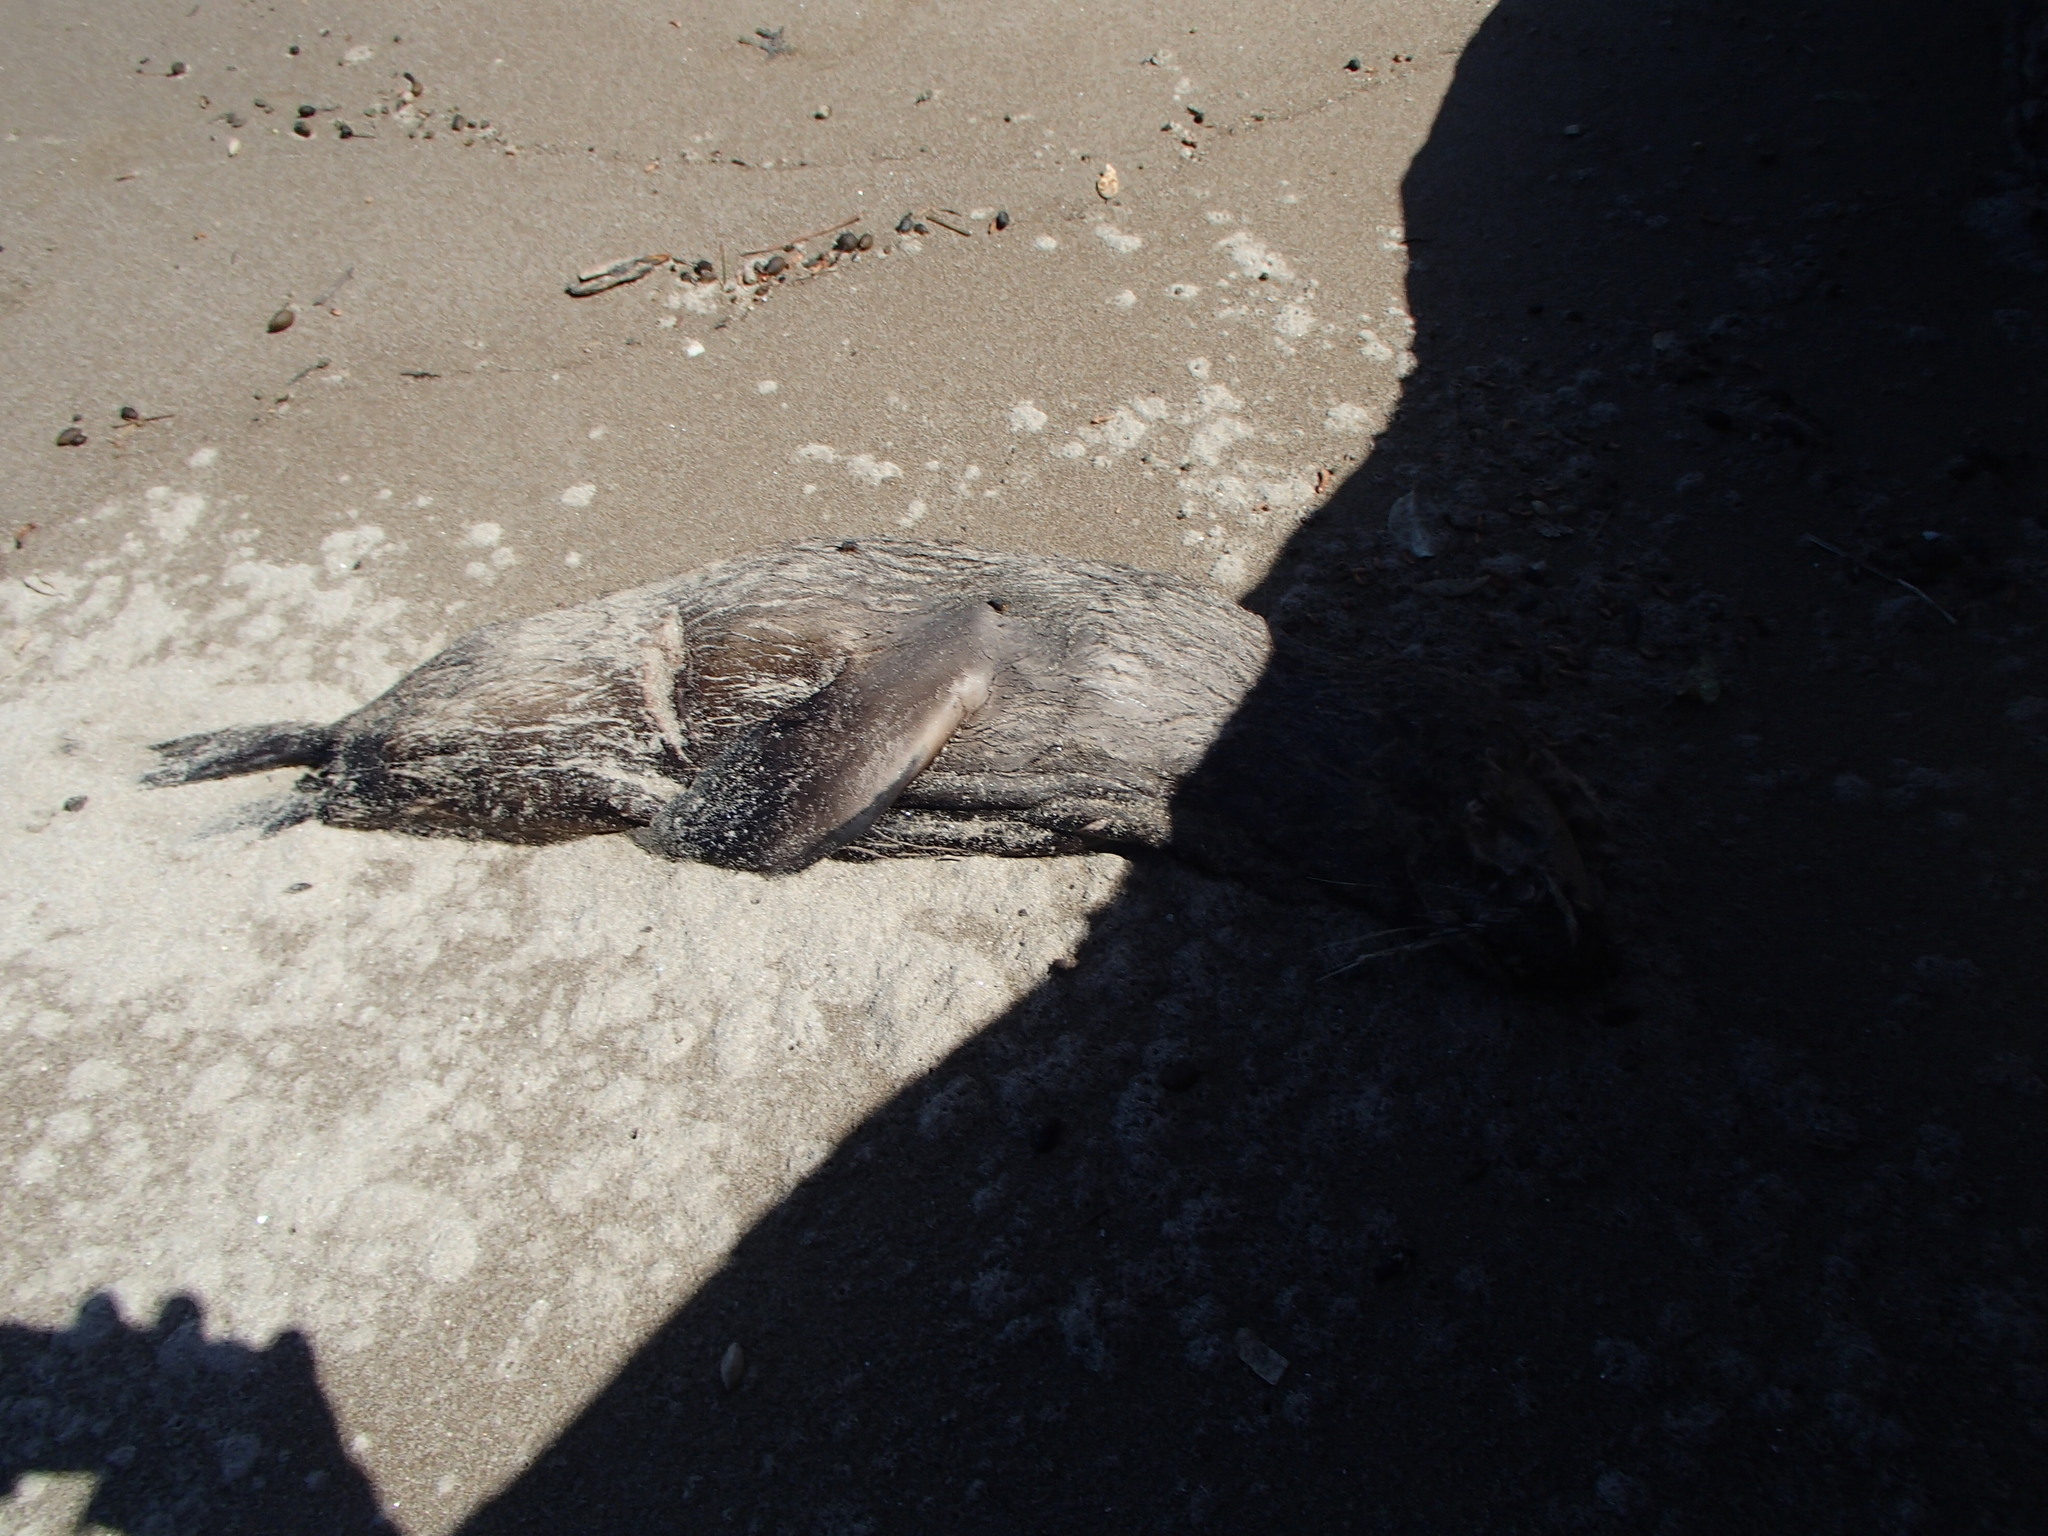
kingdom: Animalia
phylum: Chordata
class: Mammalia
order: Carnivora
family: Otariidae
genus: Arctocephalus
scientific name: Arctocephalus forsteri
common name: New zealand fur seal
